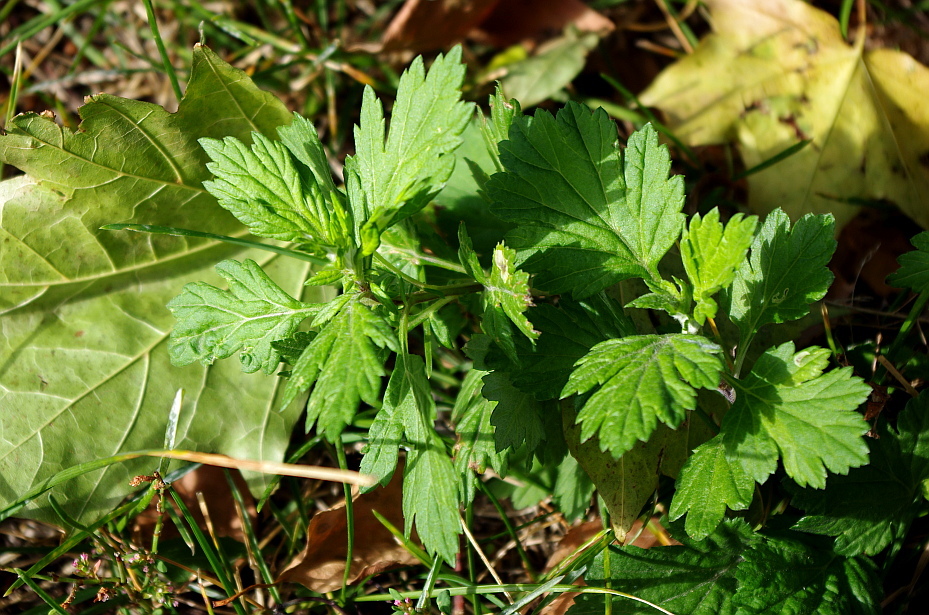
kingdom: Plantae
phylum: Tracheophyta
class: Magnoliopsida
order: Asterales
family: Asteraceae
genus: Artemisia
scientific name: Artemisia vulgaris
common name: Mugwort
